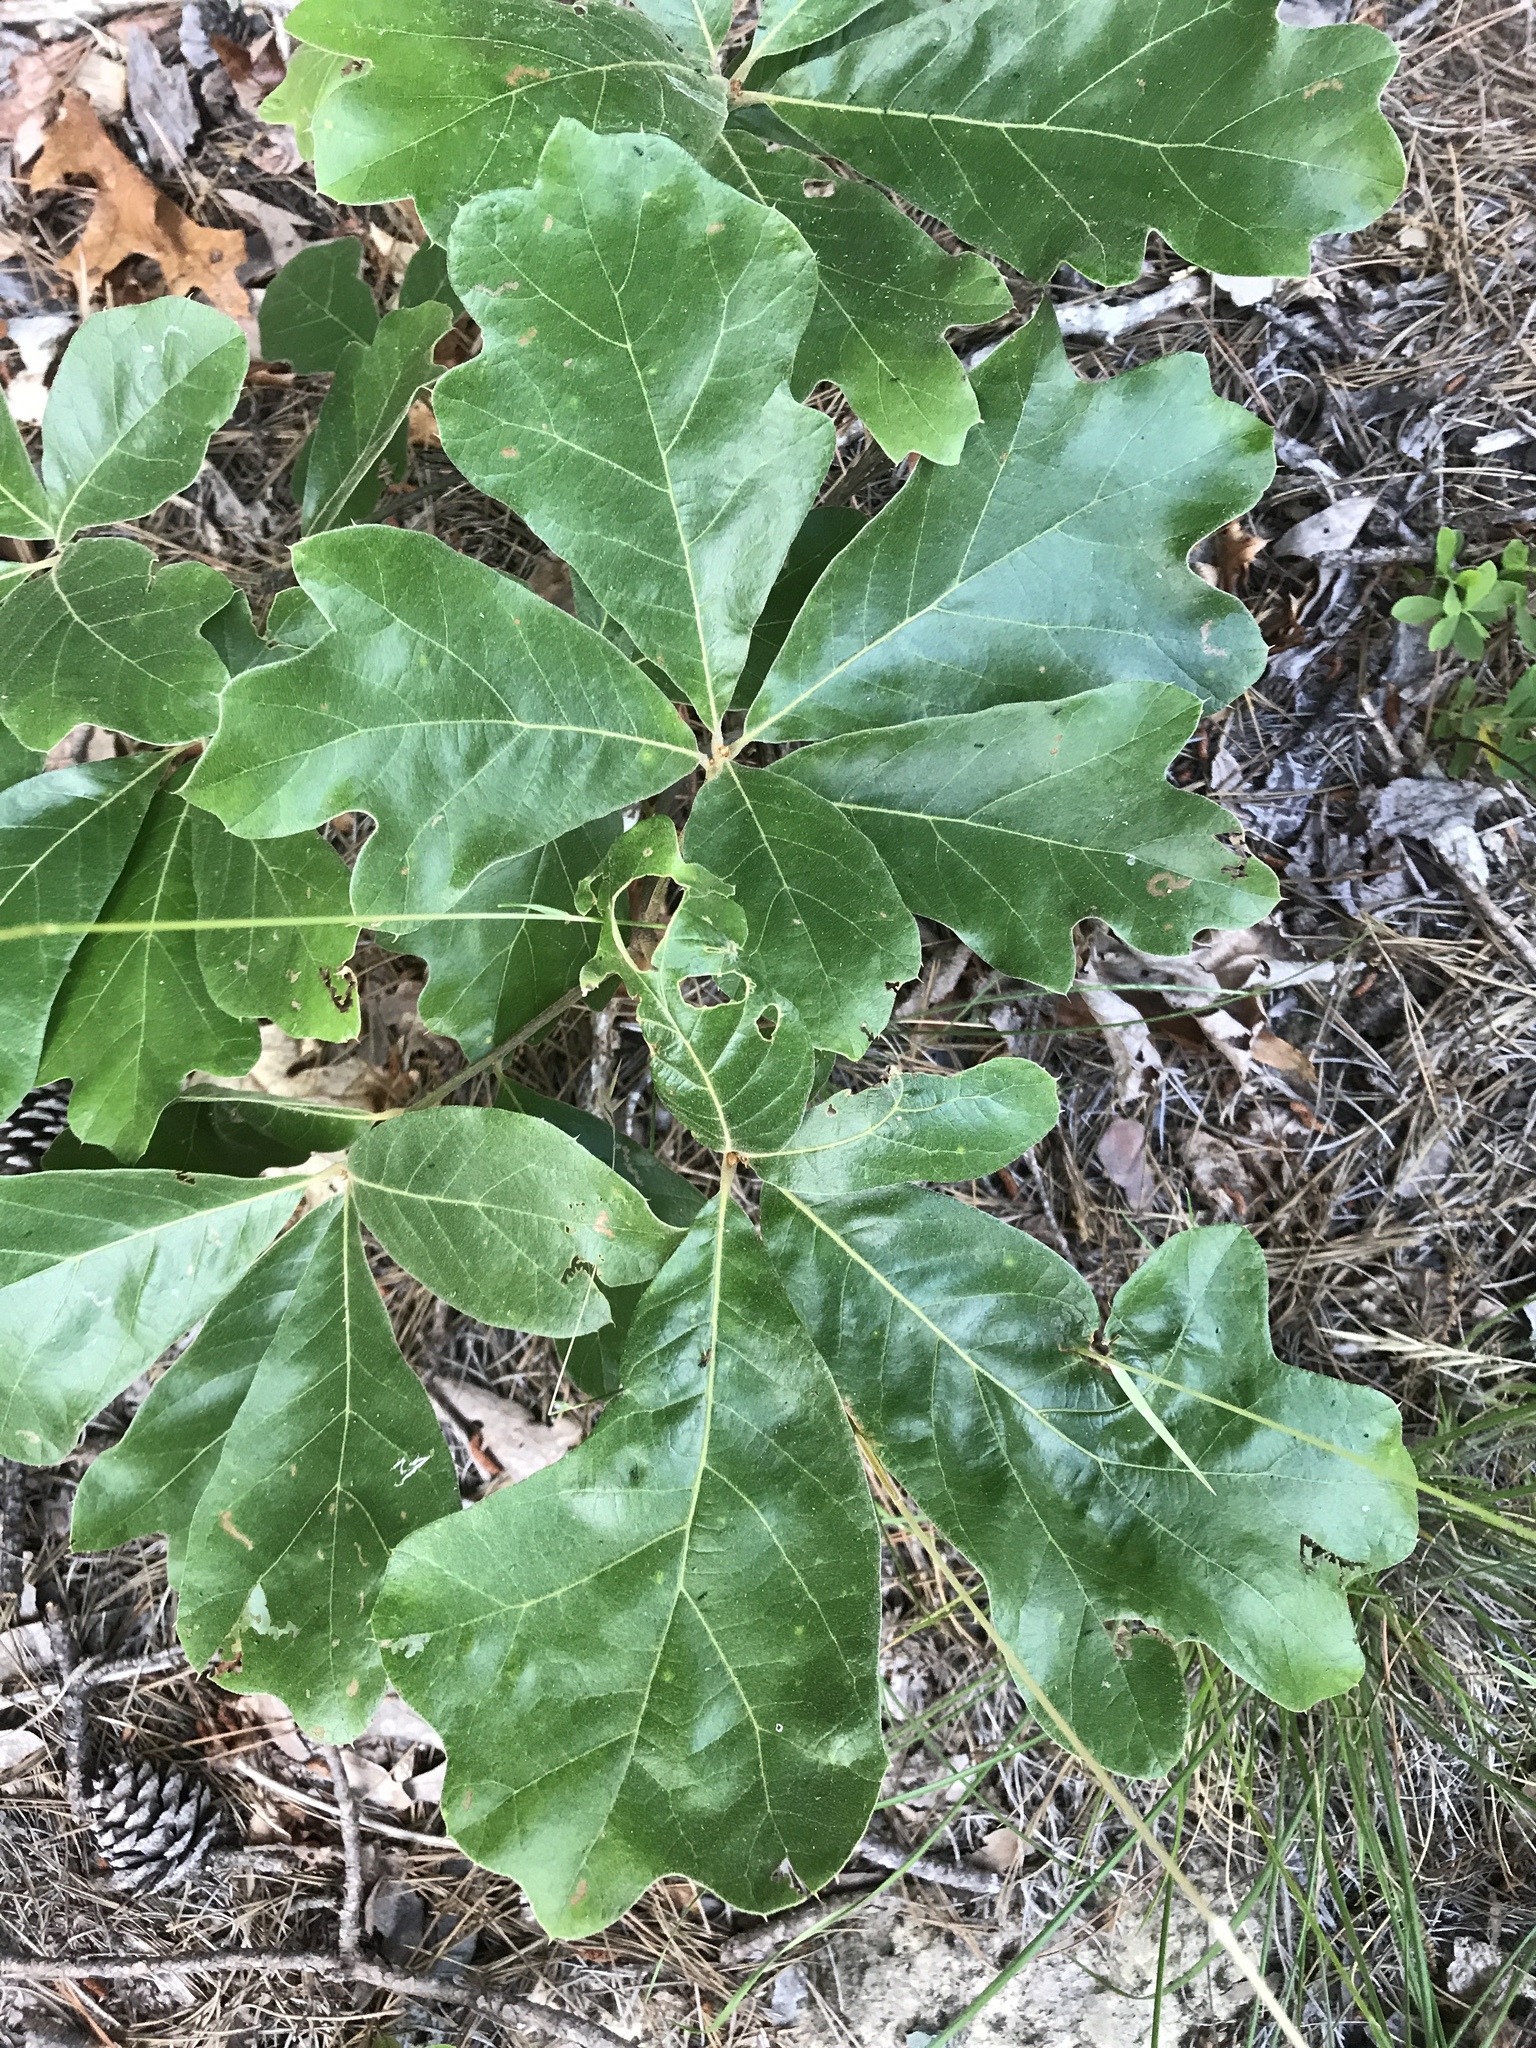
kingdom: Plantae
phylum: Tracheophyta
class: Magnoliopsida
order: Fagales
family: Fagaceae
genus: Quercus
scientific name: Quercus falcata
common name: Southern red oak
